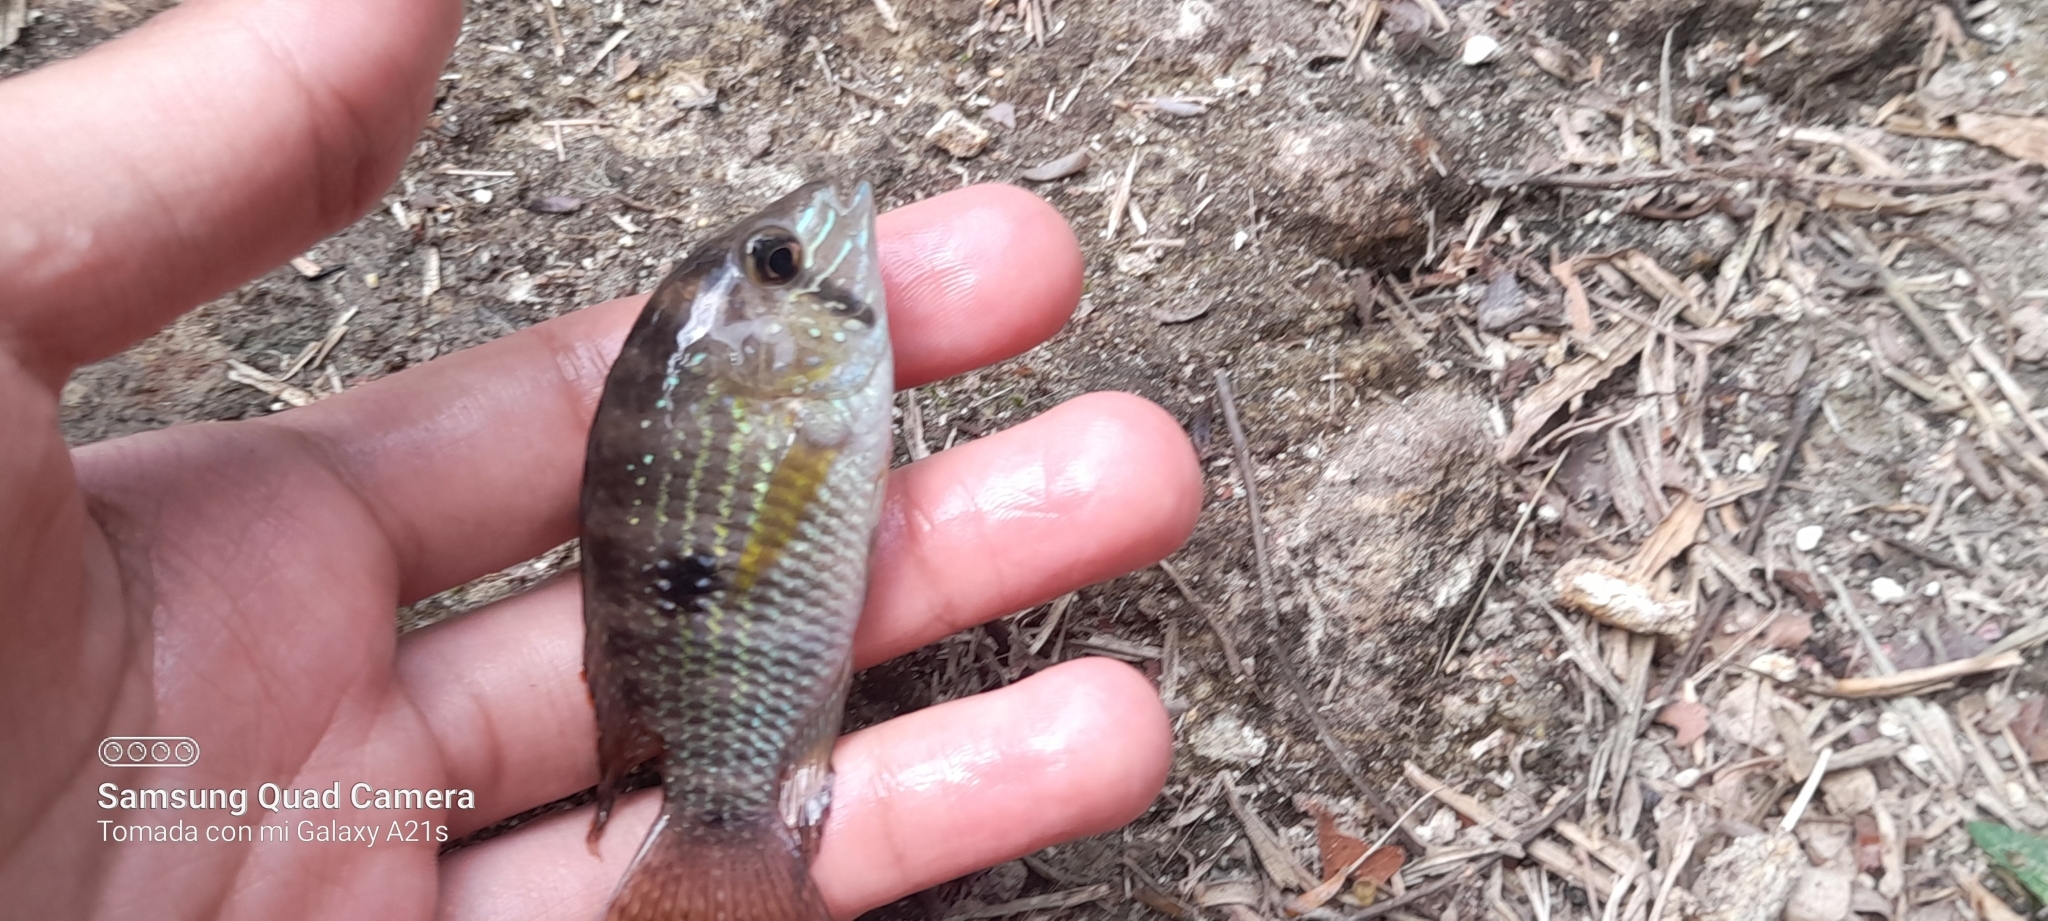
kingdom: Animalia
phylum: Chordata
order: Perciformes
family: Cichlidae
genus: Andinoacara
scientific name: Andinoacara coeruleopunctatus
